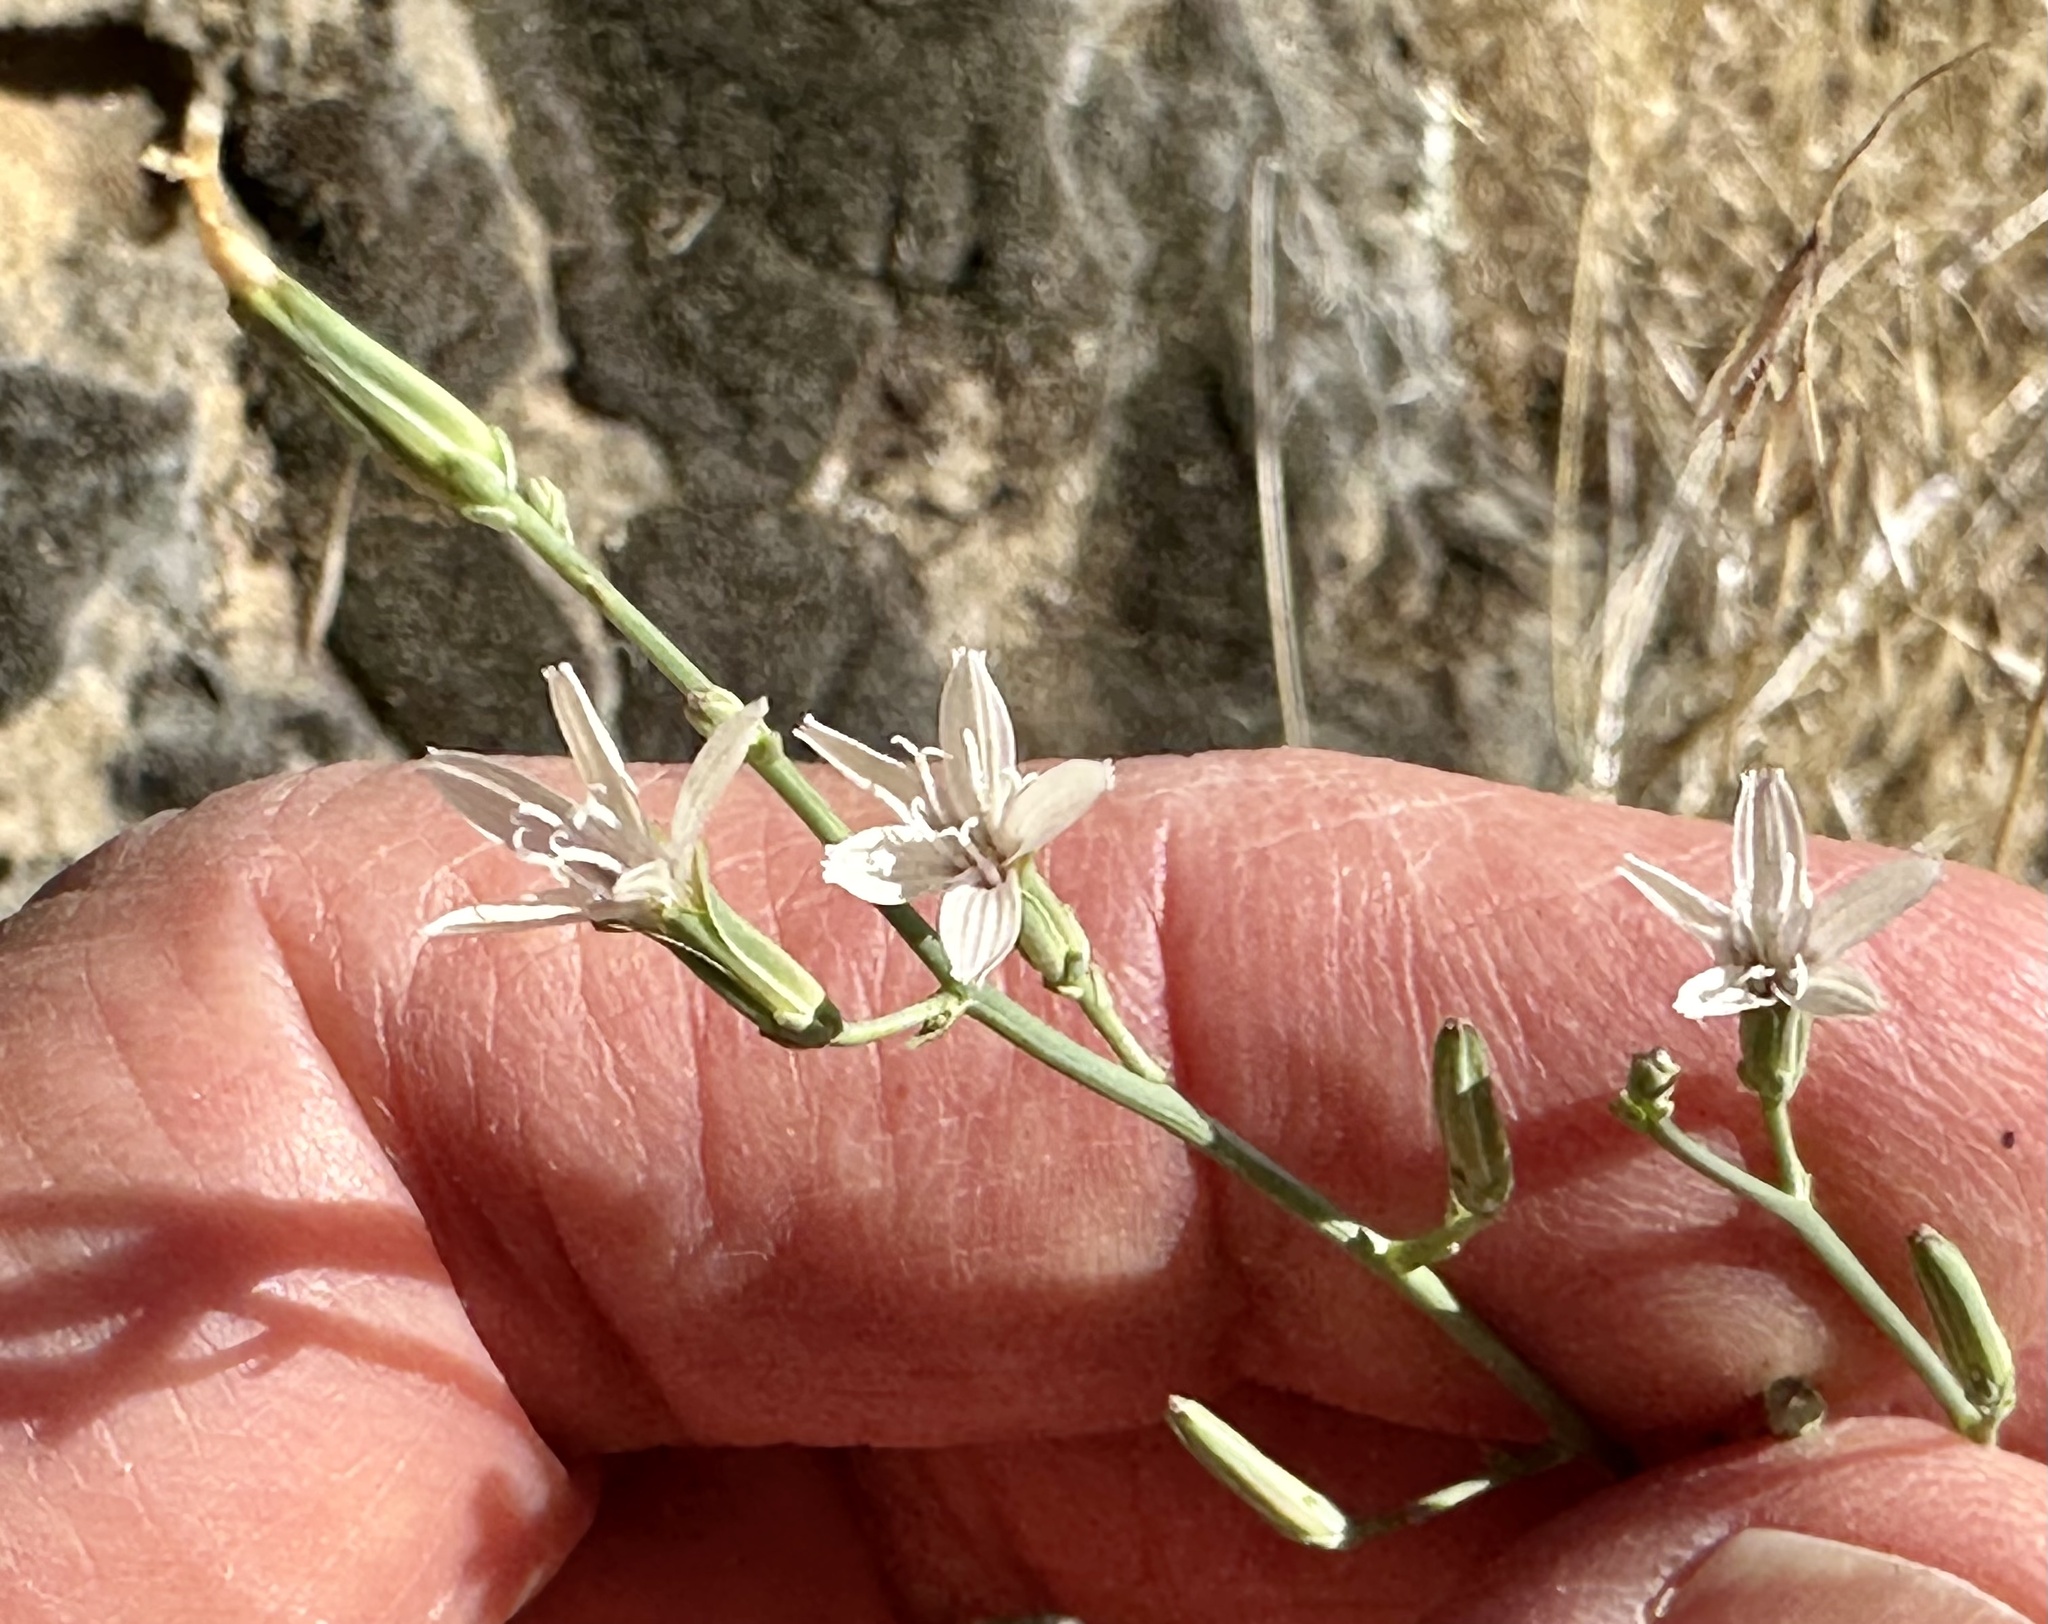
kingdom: Plantae
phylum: Tracheophyta
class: Magnoliopsida
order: Asterales
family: Asteraceae
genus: Stephanomeria
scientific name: Stephanomeria exigua
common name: Small wirelettuce
